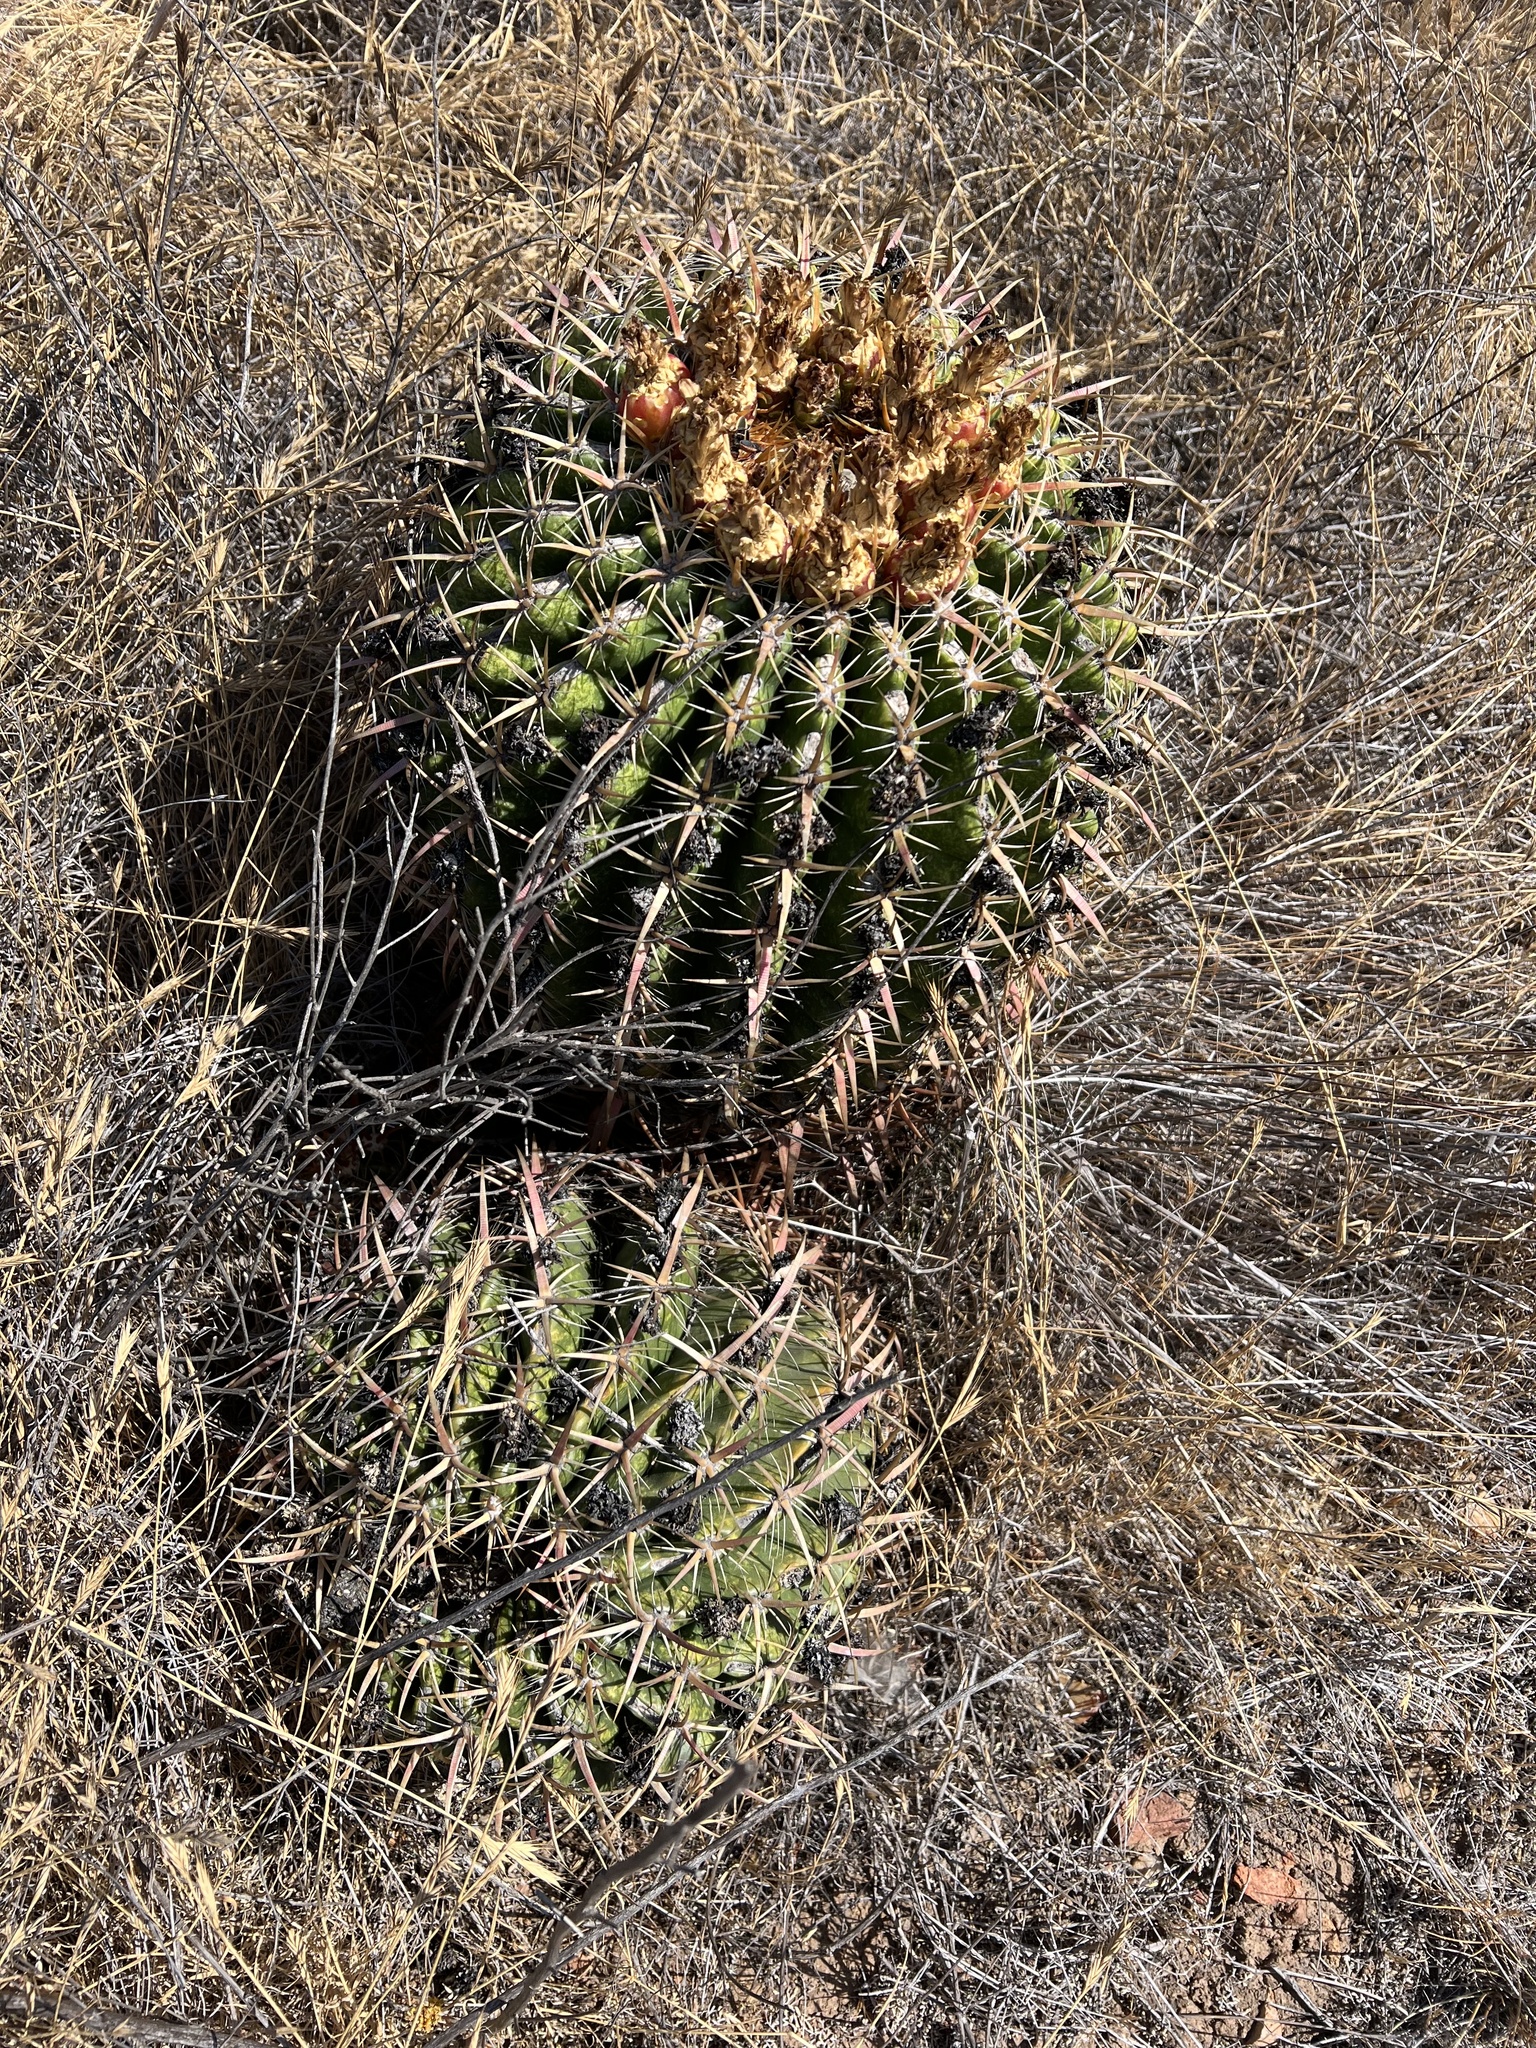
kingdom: Plantae
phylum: Tracheophyta
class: Magnoliopsida
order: Caryophyllales
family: Cactaceae
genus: Ferocactus
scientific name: Ferocactus viridescens
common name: San diego barrel cactus
